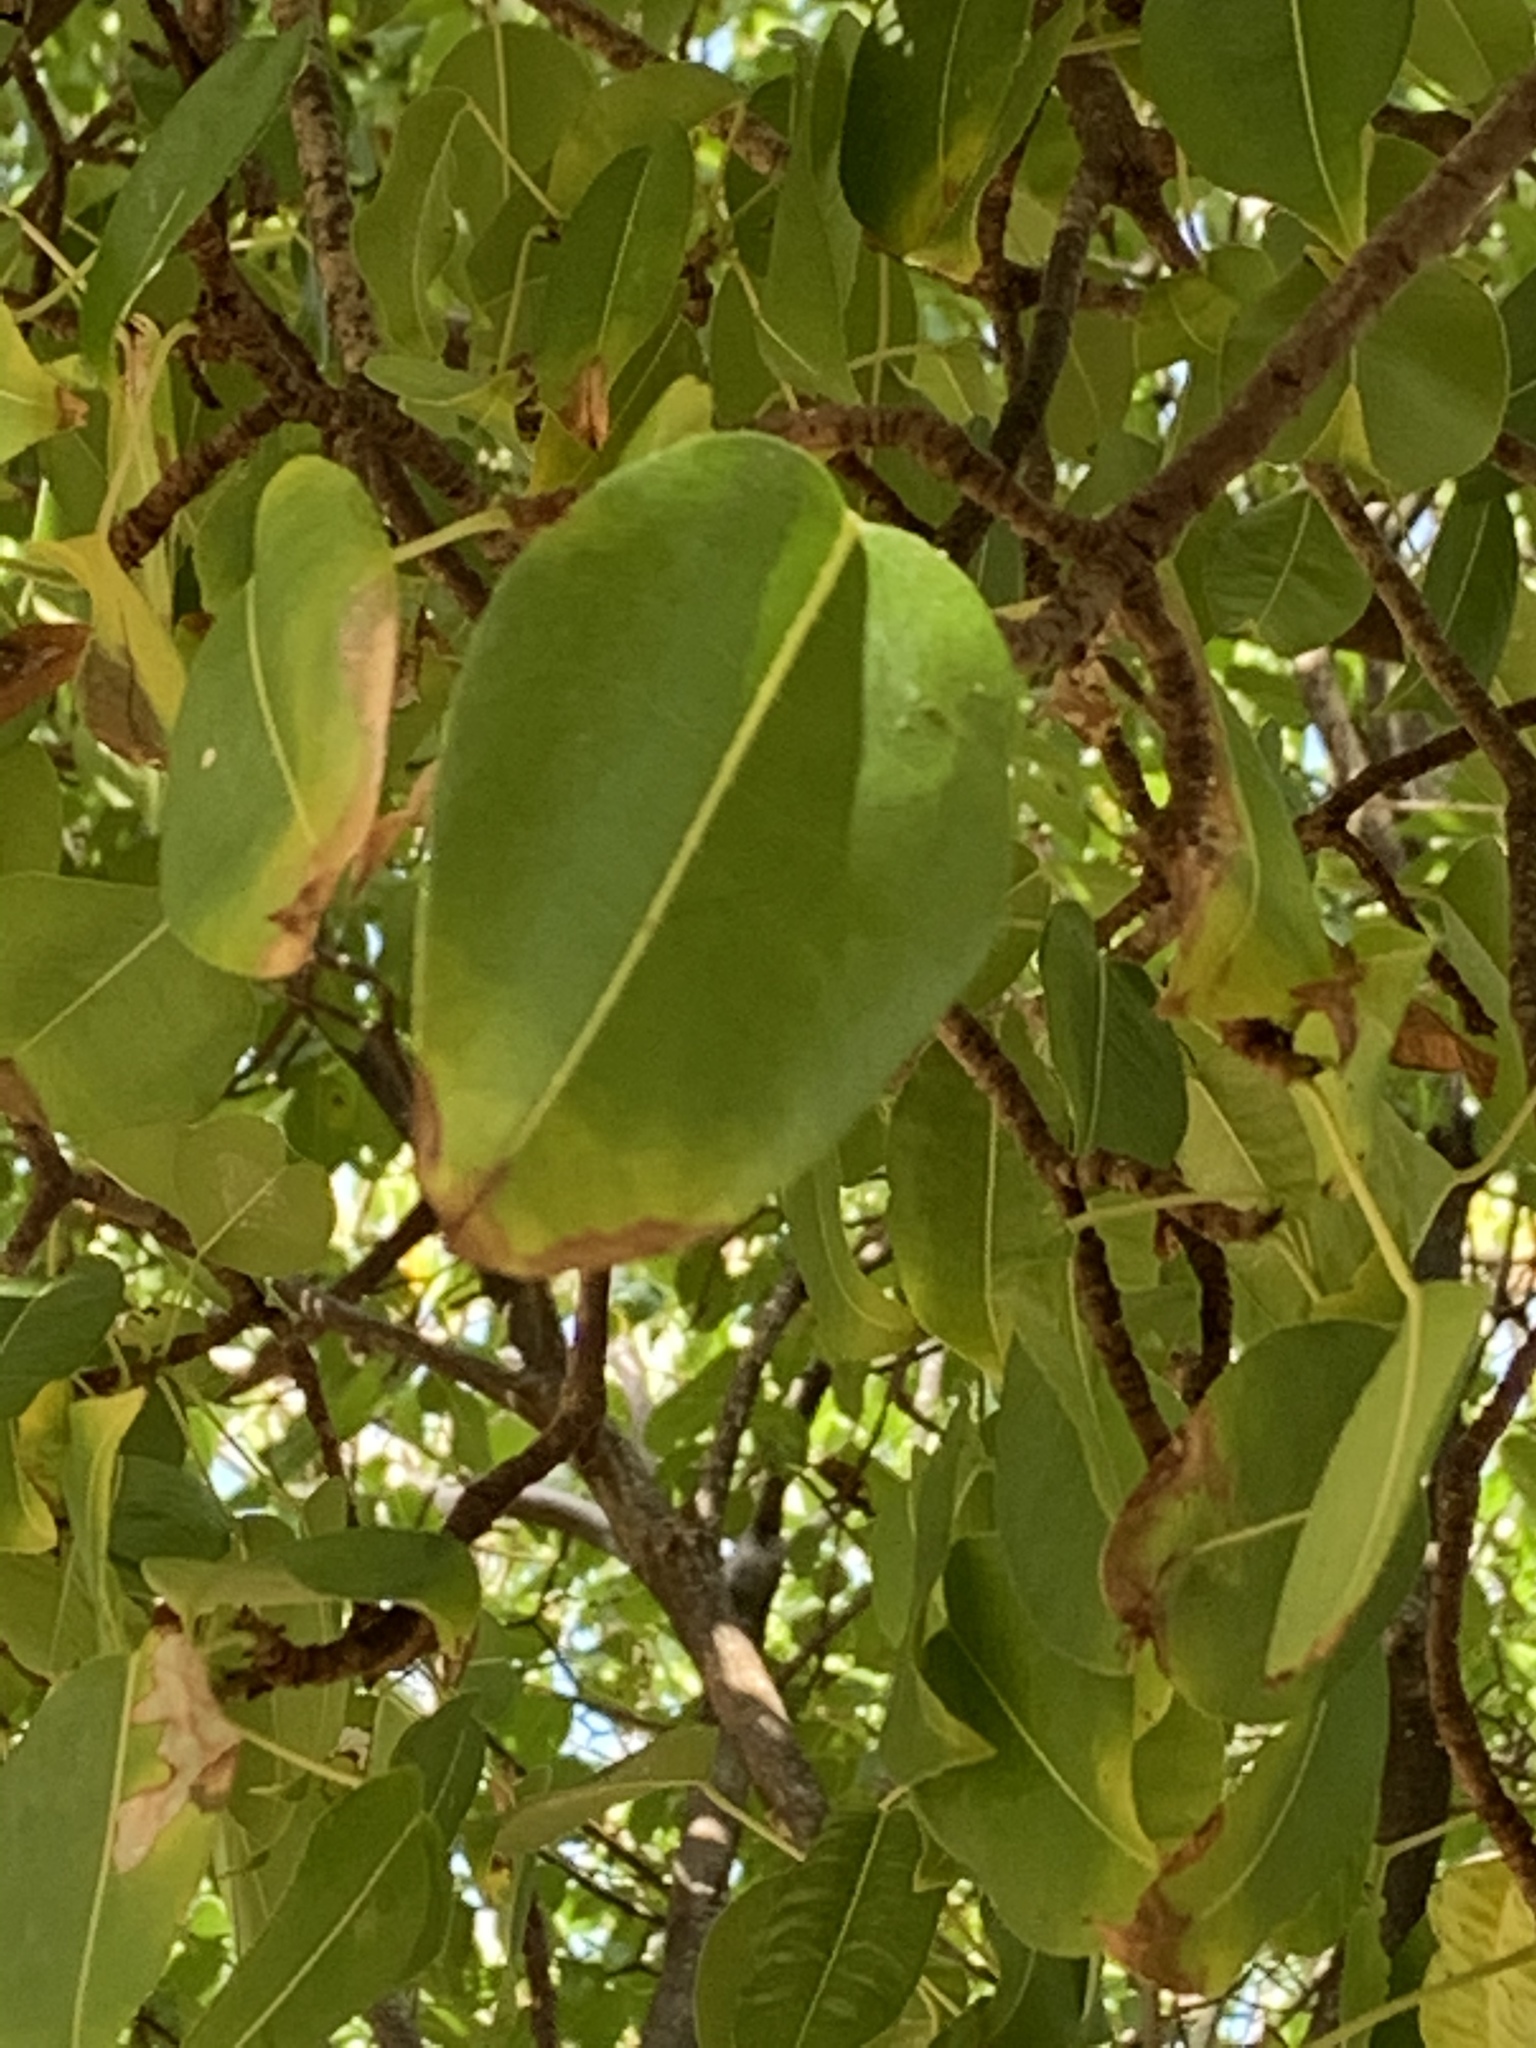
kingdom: Plantae
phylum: Tracheophyta
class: Magnoliopsida
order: Malpighiales
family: Euphorbiaceae
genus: Hippomane
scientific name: Hippomane mancinella
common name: Manchineel
